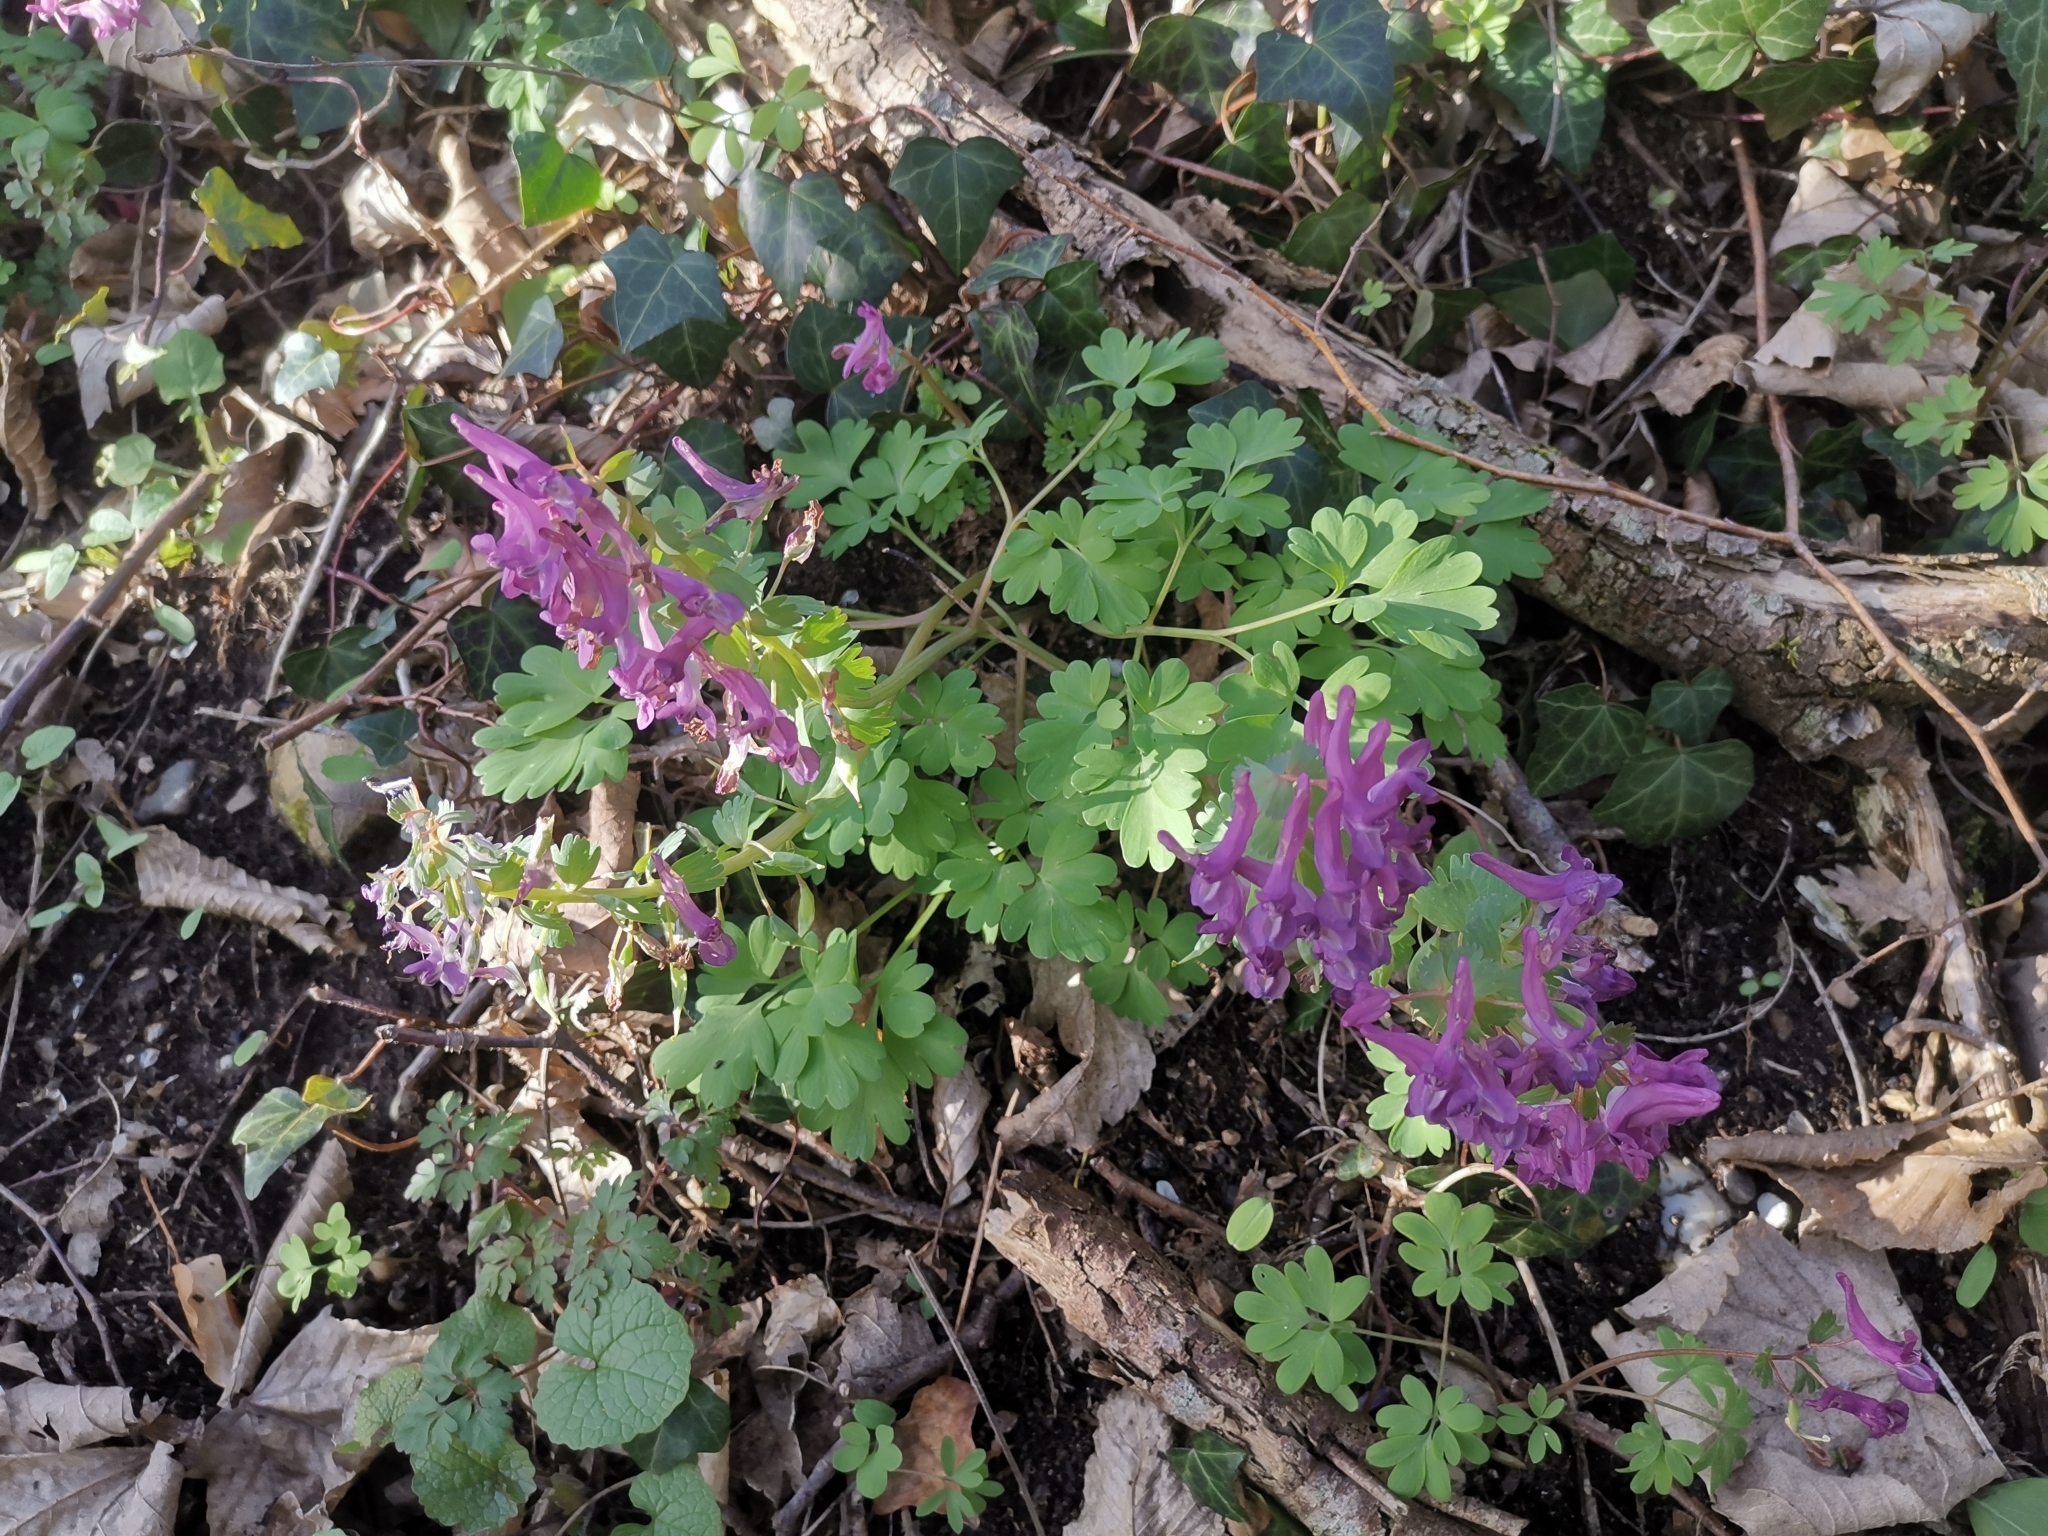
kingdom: Plantae
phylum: Tracheophyta
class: Magnoliopsida
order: Ranunculales
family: Papaveraceae
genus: Corydalis
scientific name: Corydalis solida
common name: Bird-in-a-bush
